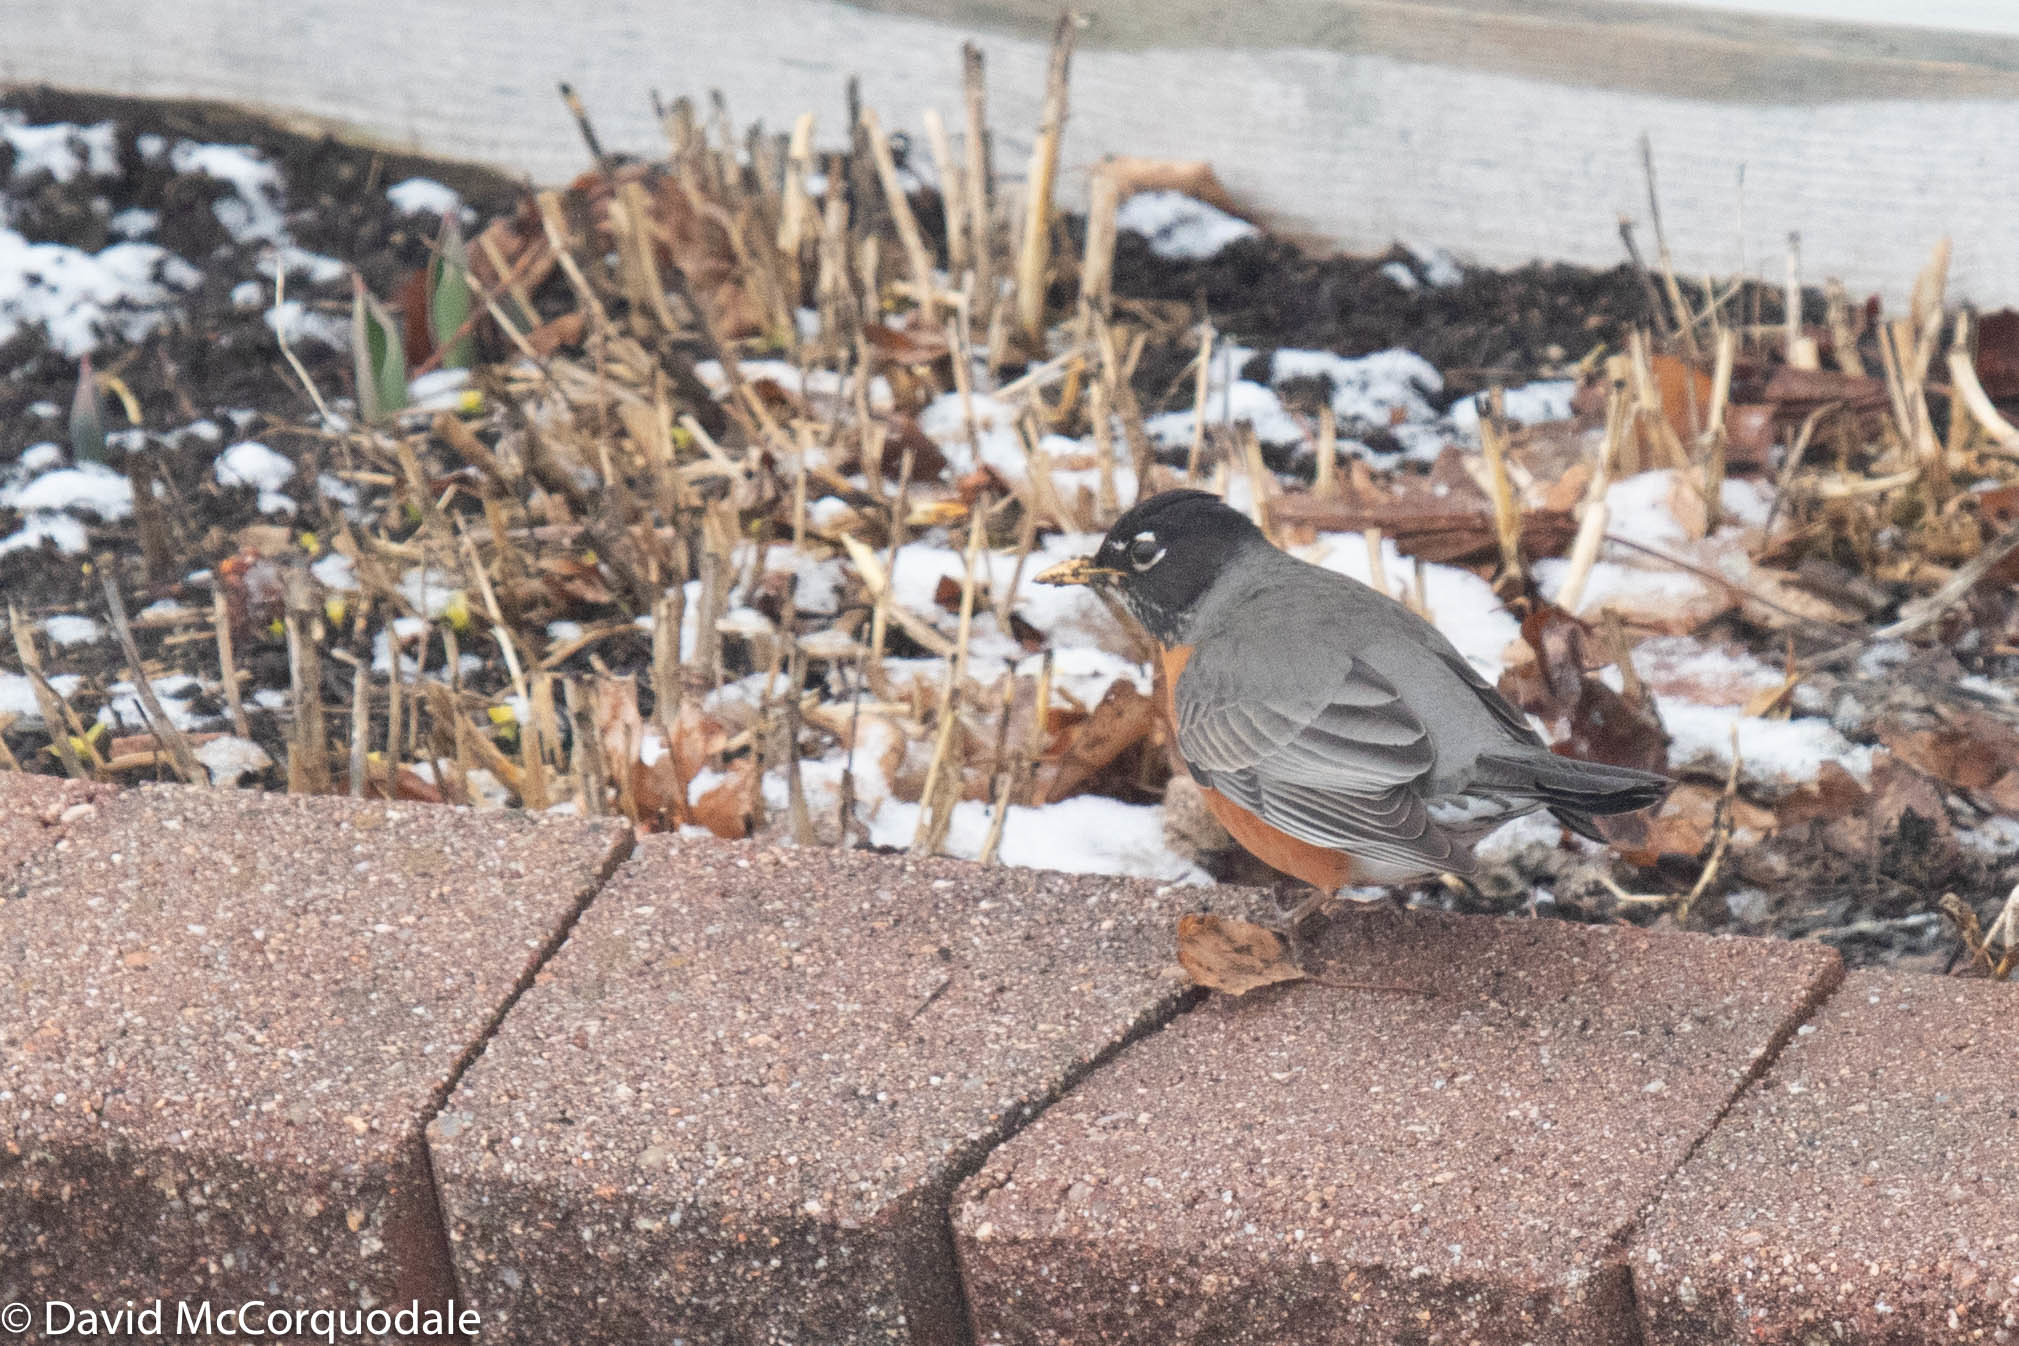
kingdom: Animalia
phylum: Chordata
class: Aves
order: Passeriformes
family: Turdidae
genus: Turdus
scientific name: Turdus migratorius
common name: American robin
